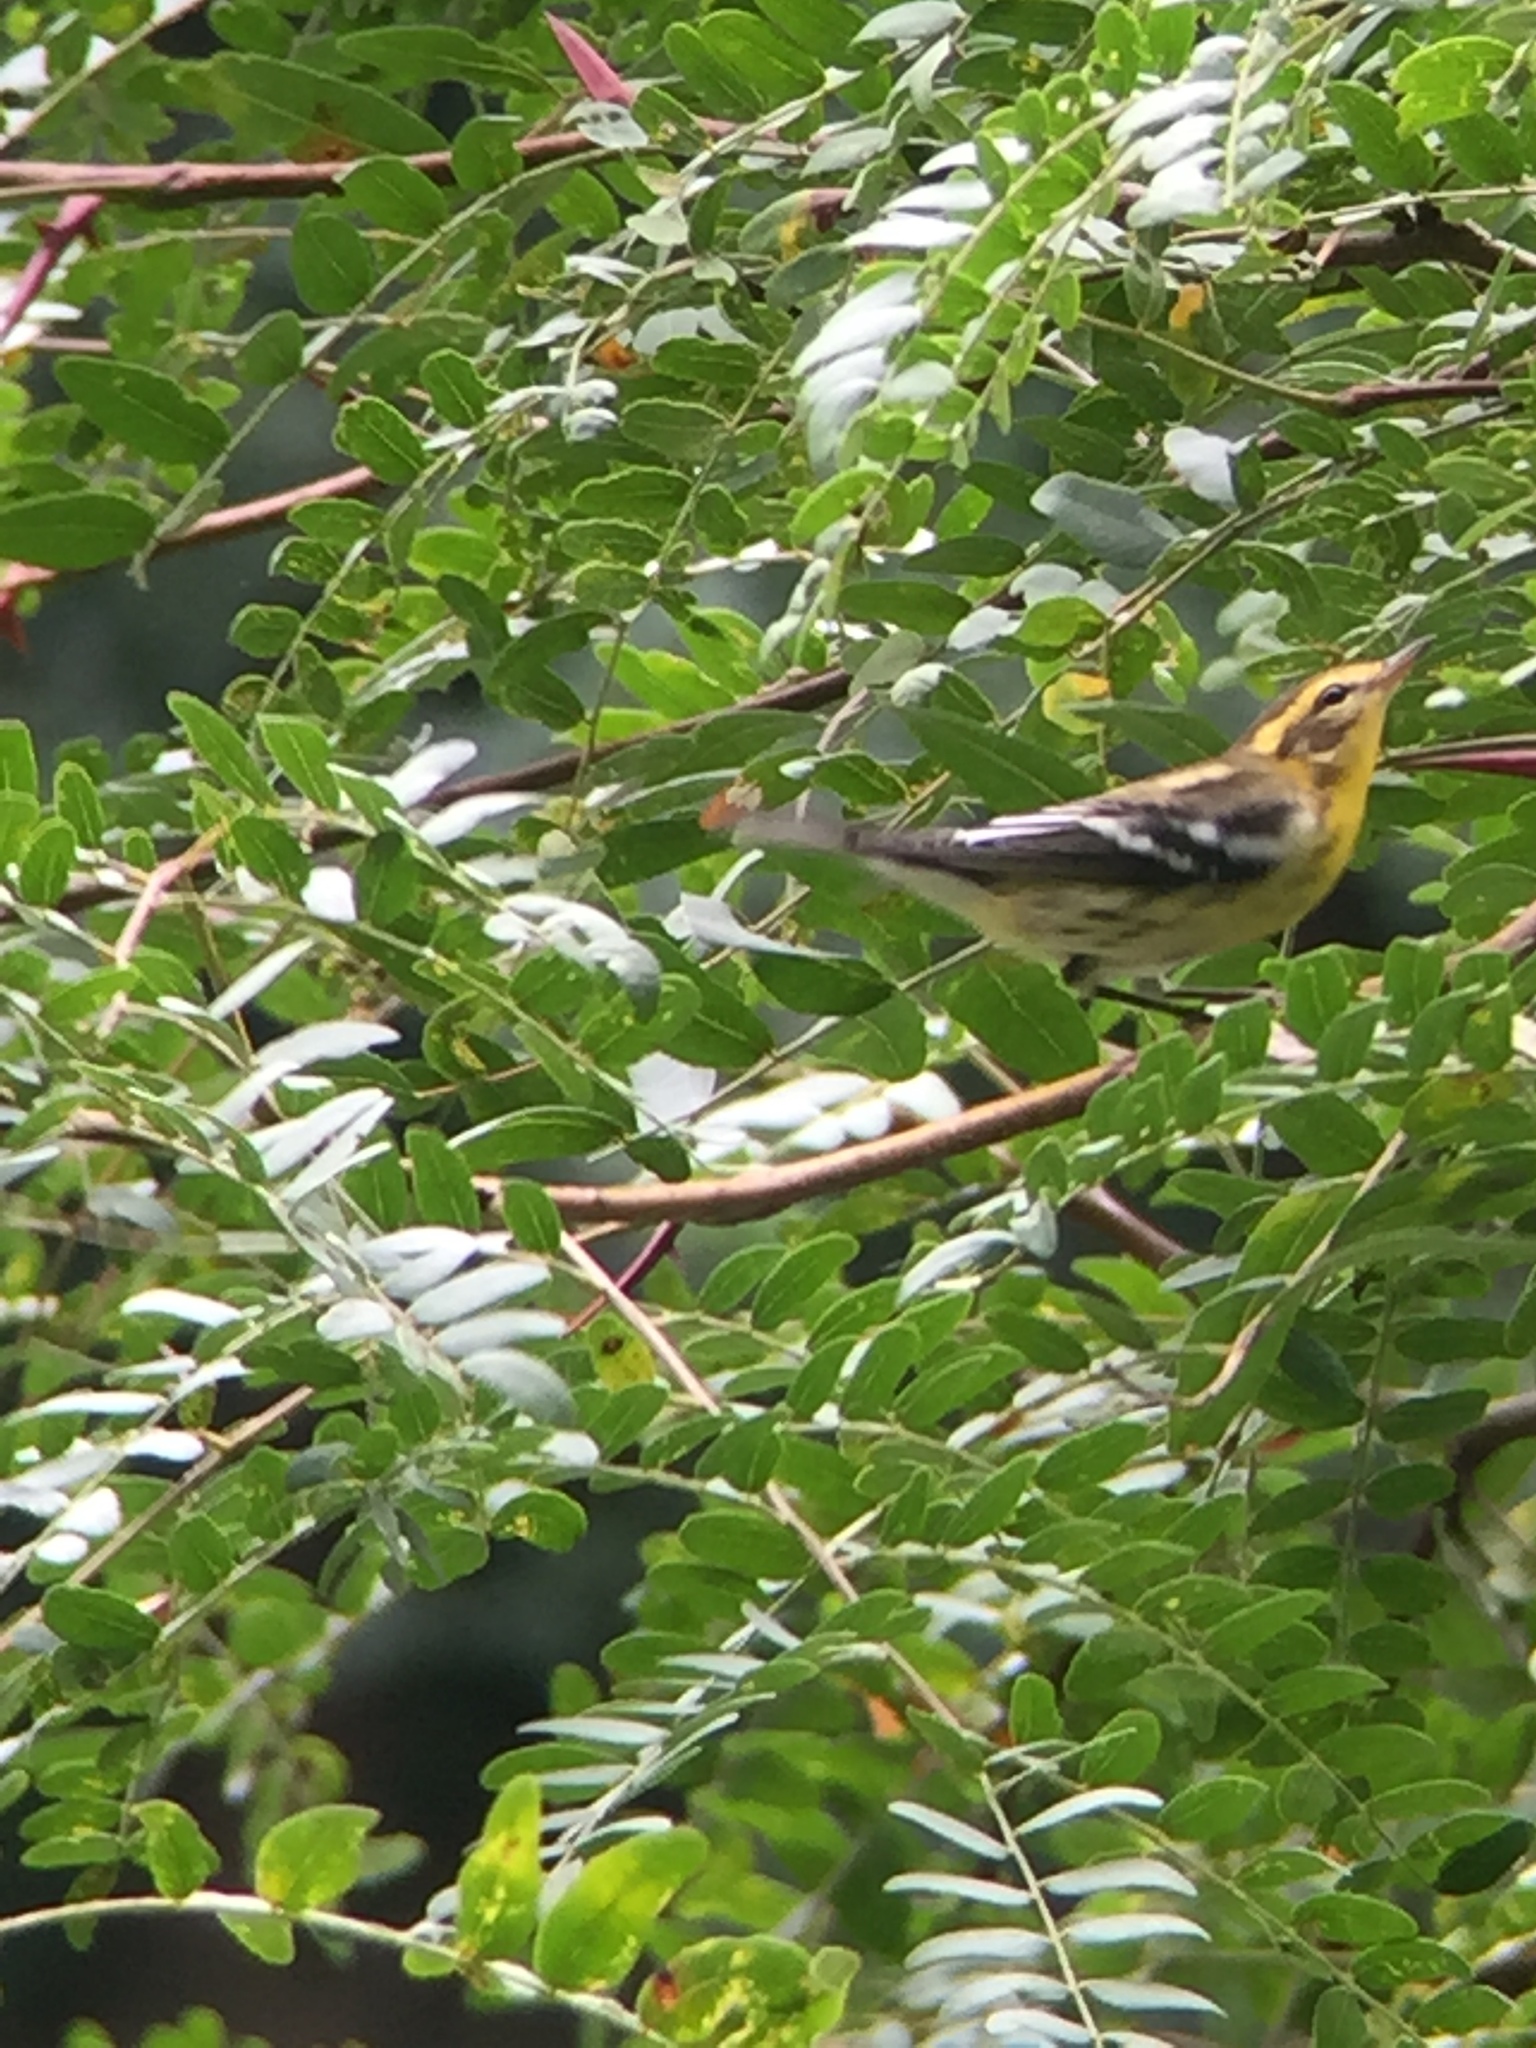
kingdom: Animalia
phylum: Chordata
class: Aves
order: Passeriformes
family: Parulidae
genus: Setophaga
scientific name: Setophaga fusca
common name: Blackburnian warbler
